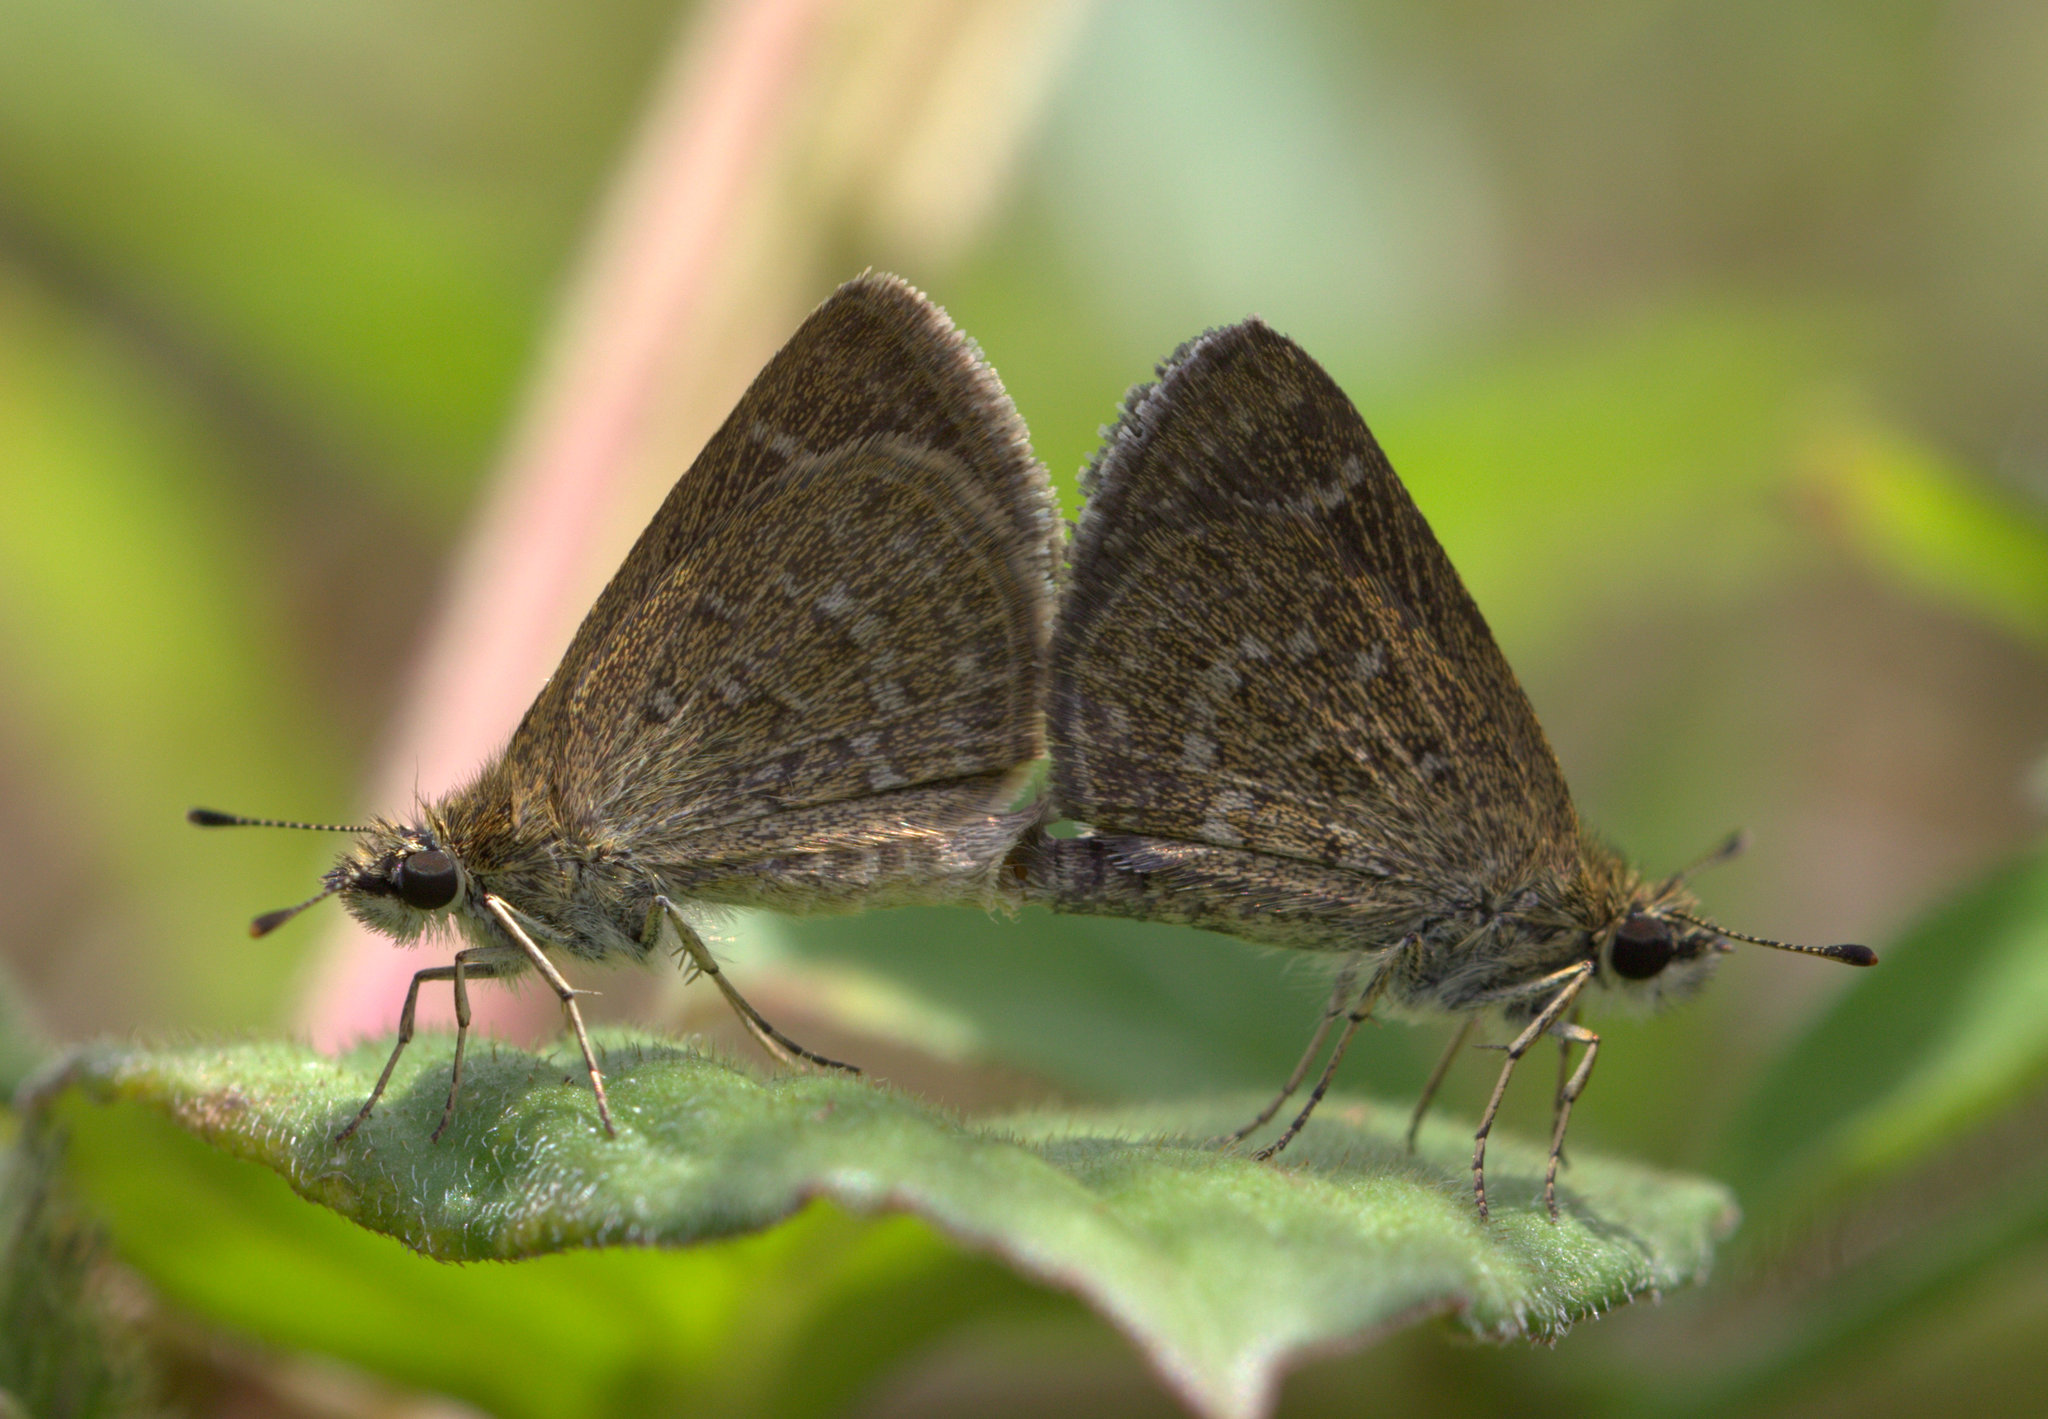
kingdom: Animalia
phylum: Arthropoda
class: Insecta
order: Lepidoptera
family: Hesperiidae
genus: Aeromachus
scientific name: Aeromachus pygmaeus
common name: Pygmy scrub hopper
